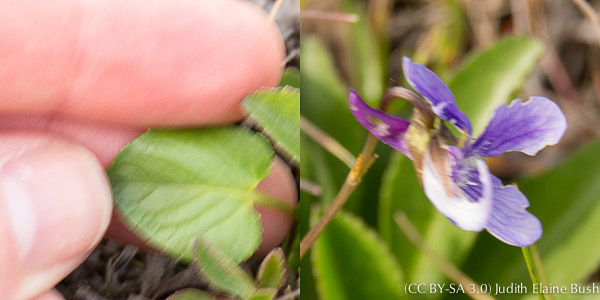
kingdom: Plantae
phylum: Tracheophyta
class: Magnoliopsida
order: Malpighiales
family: Violaceae
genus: Viola
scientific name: Viola adunca
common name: Sand violet
